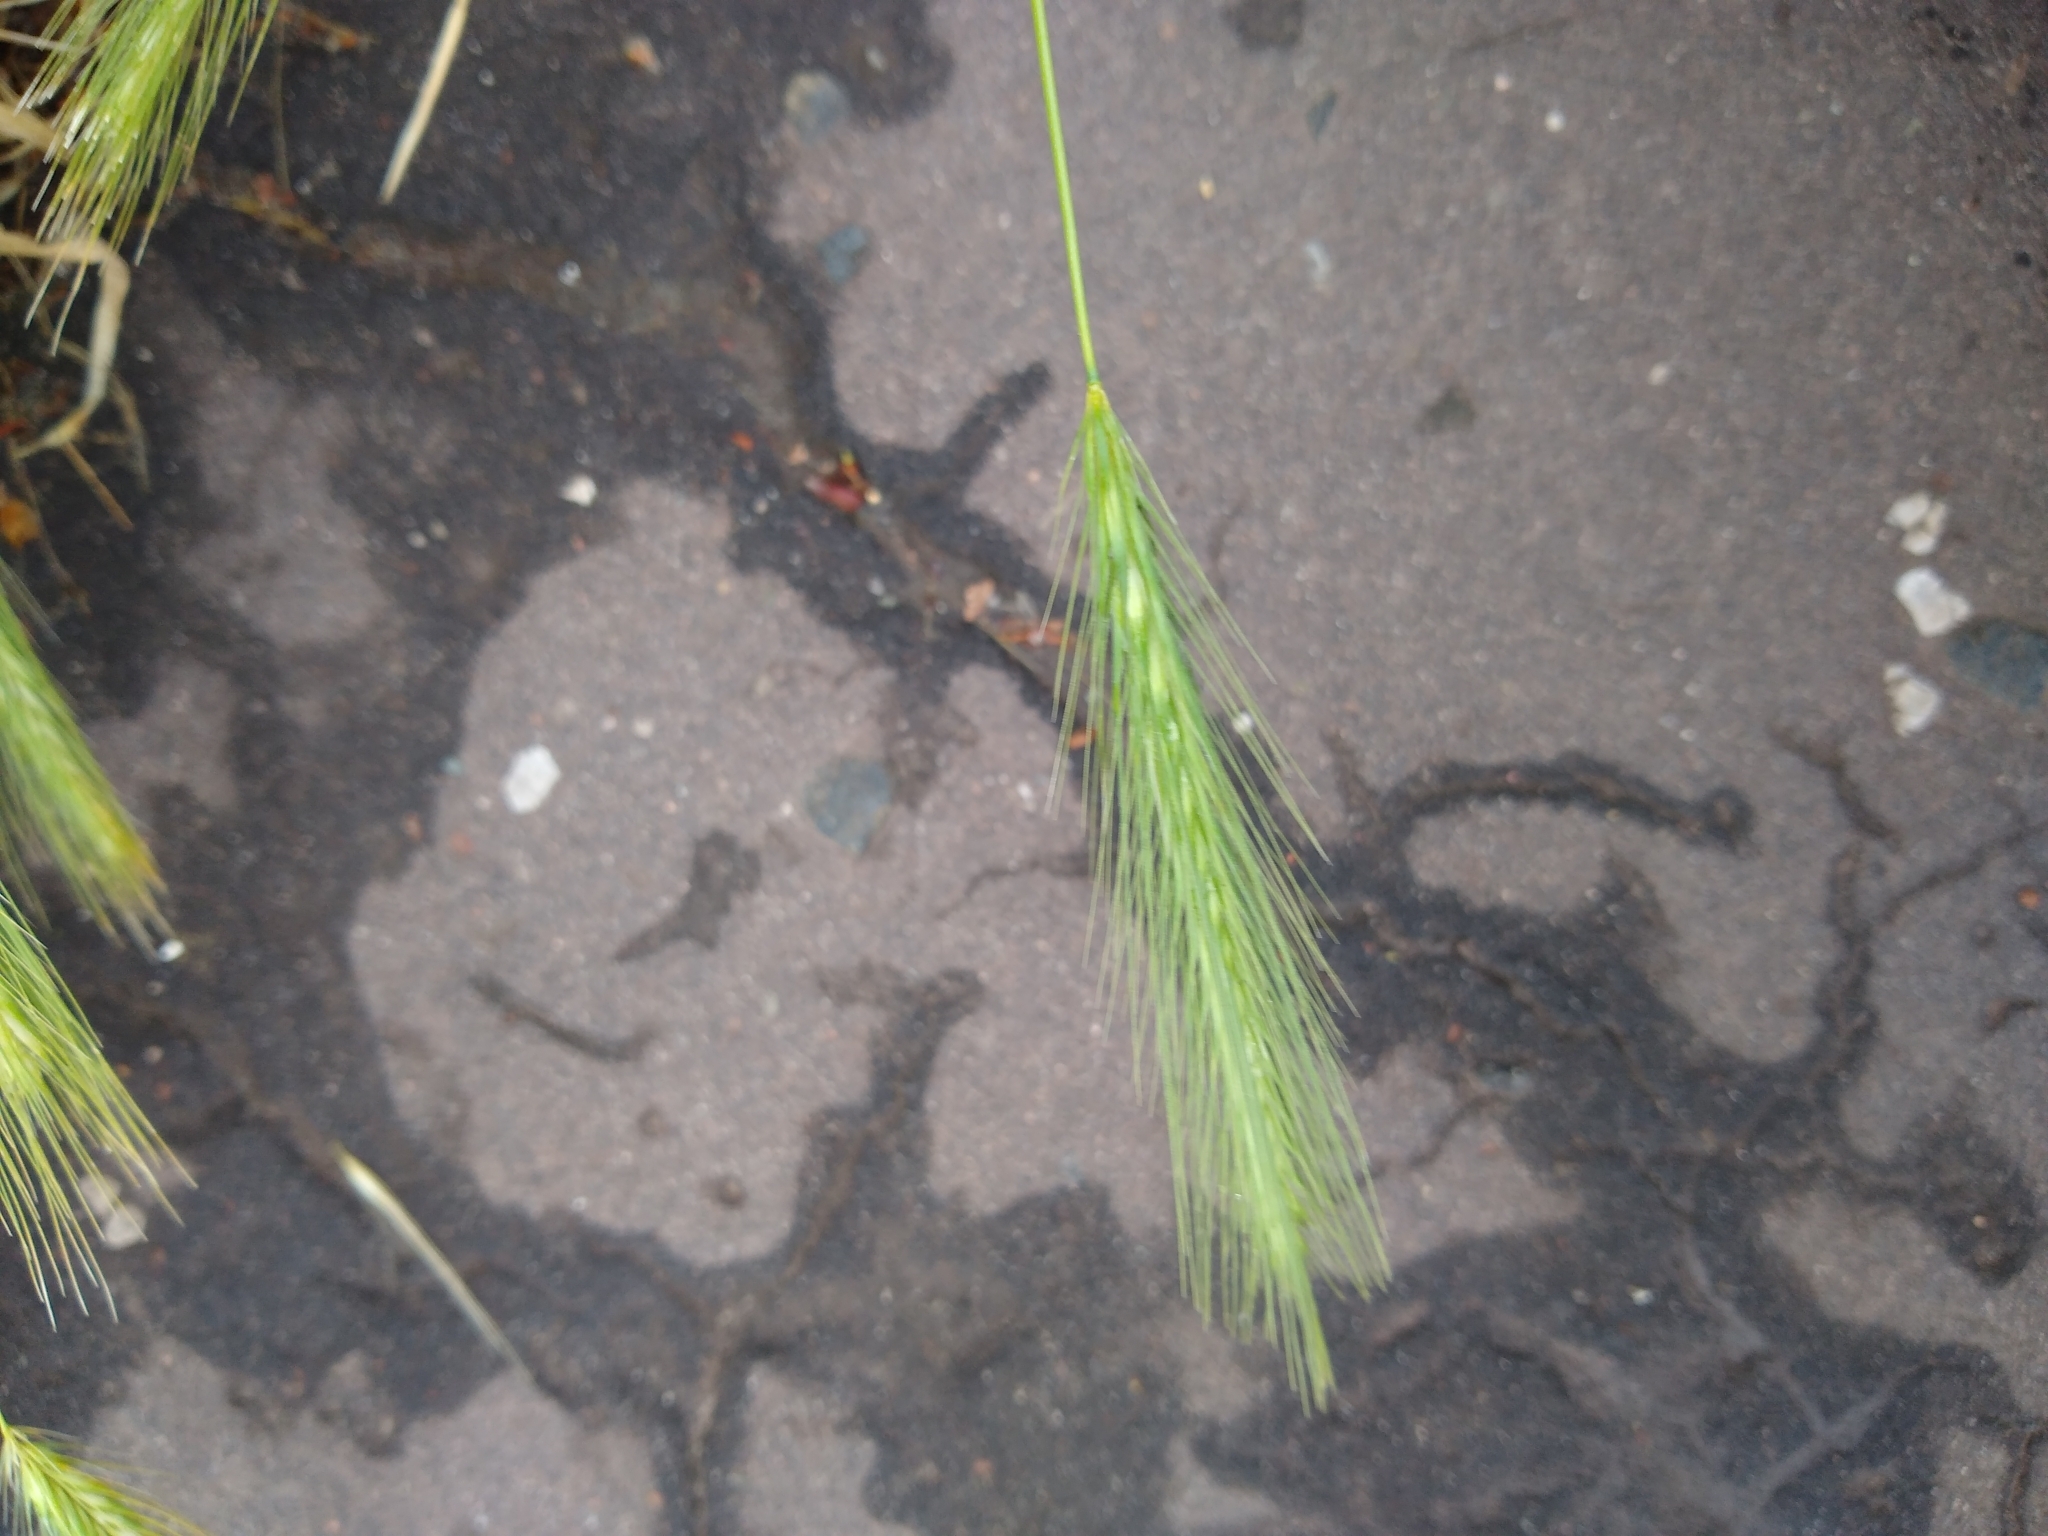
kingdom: Plantae
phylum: Tracheophyta
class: Liliopsida
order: Poales
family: Poaceae
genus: Hordeum
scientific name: Hordeum murinum
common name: Wall barley
